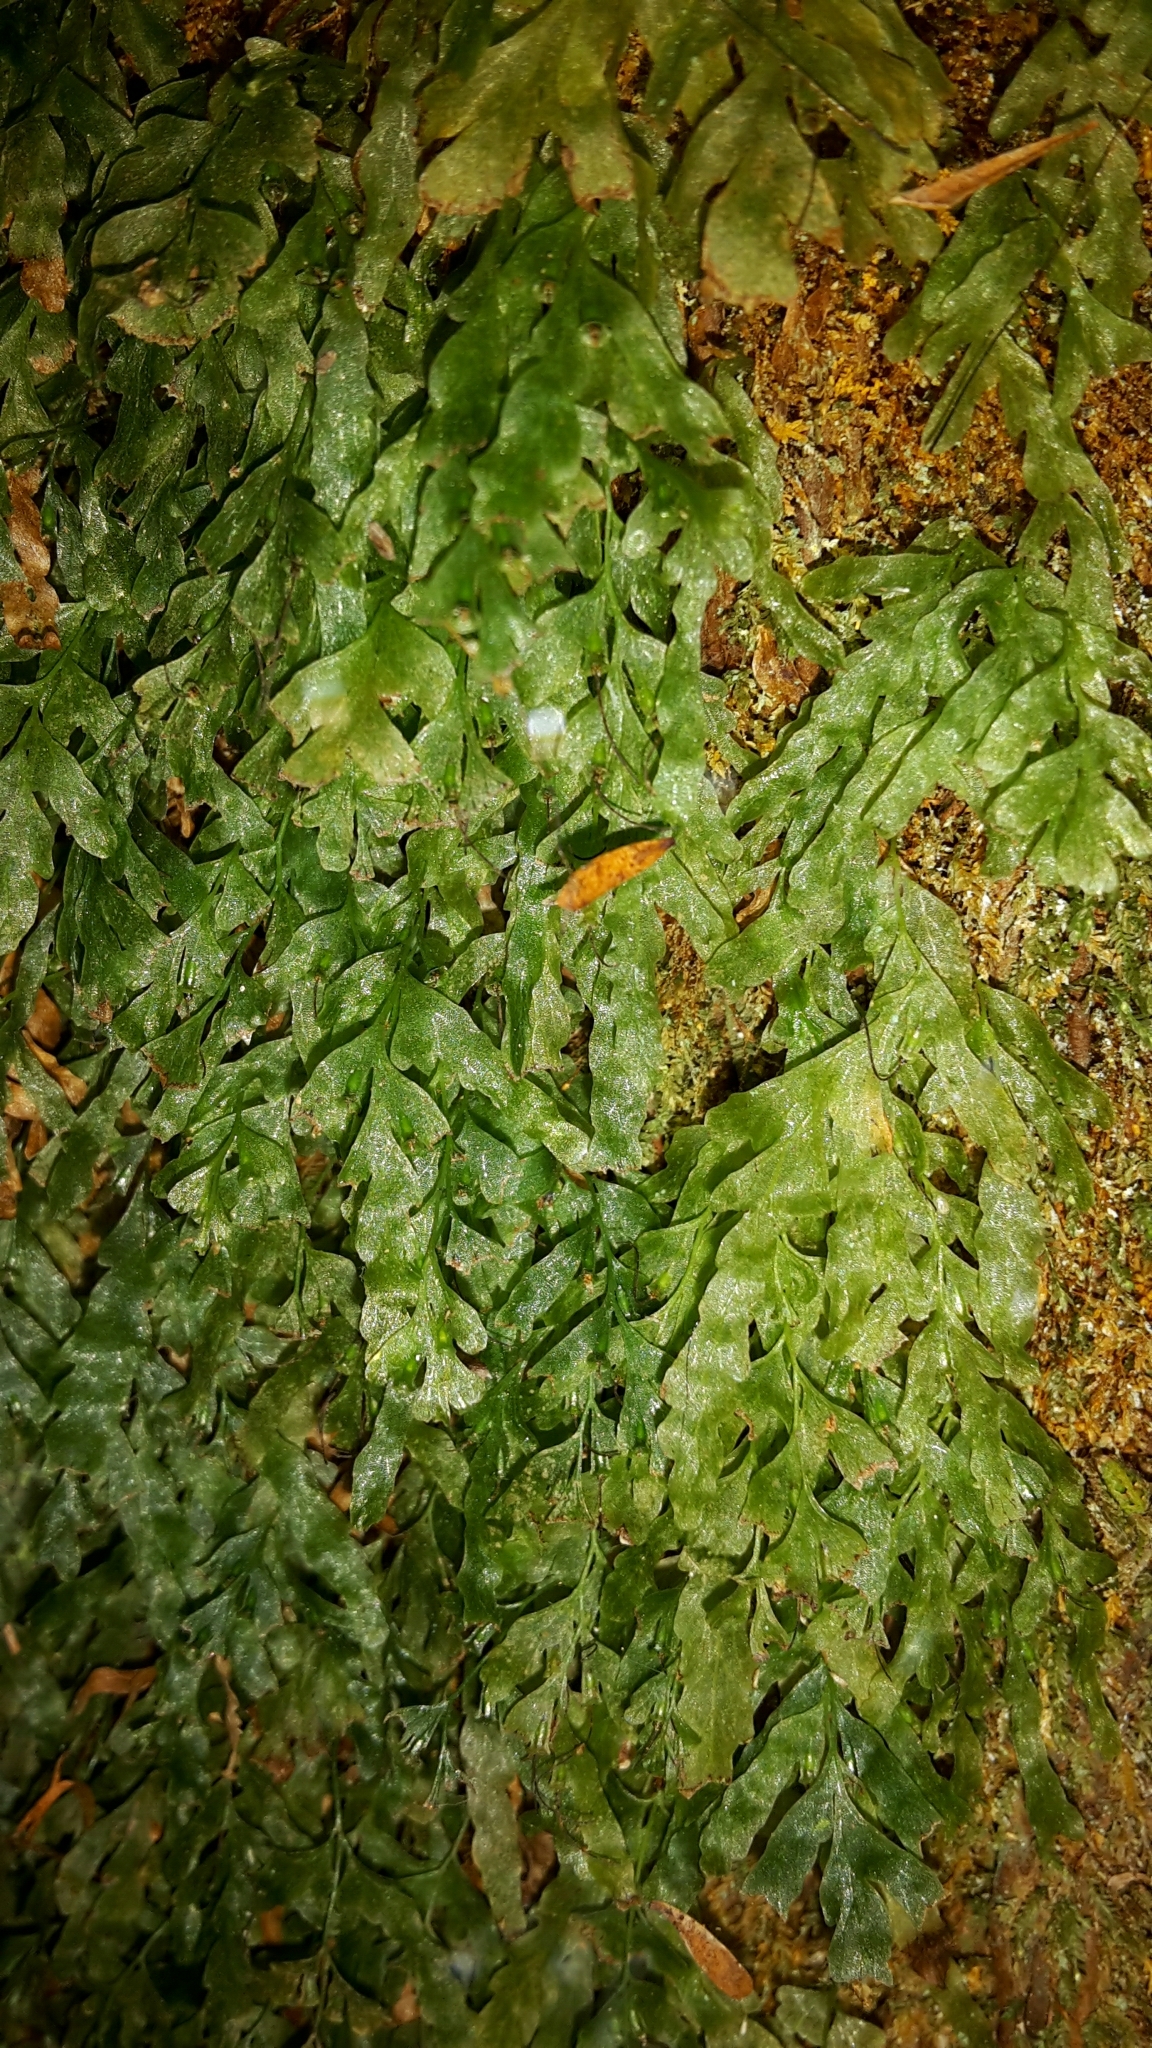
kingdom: Plantae
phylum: Tracheophyta
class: Polypodiopsida
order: Hymenophyllales
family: Hymenophyllaceae
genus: Polyphlebium
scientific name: Polyphlebium venosum
